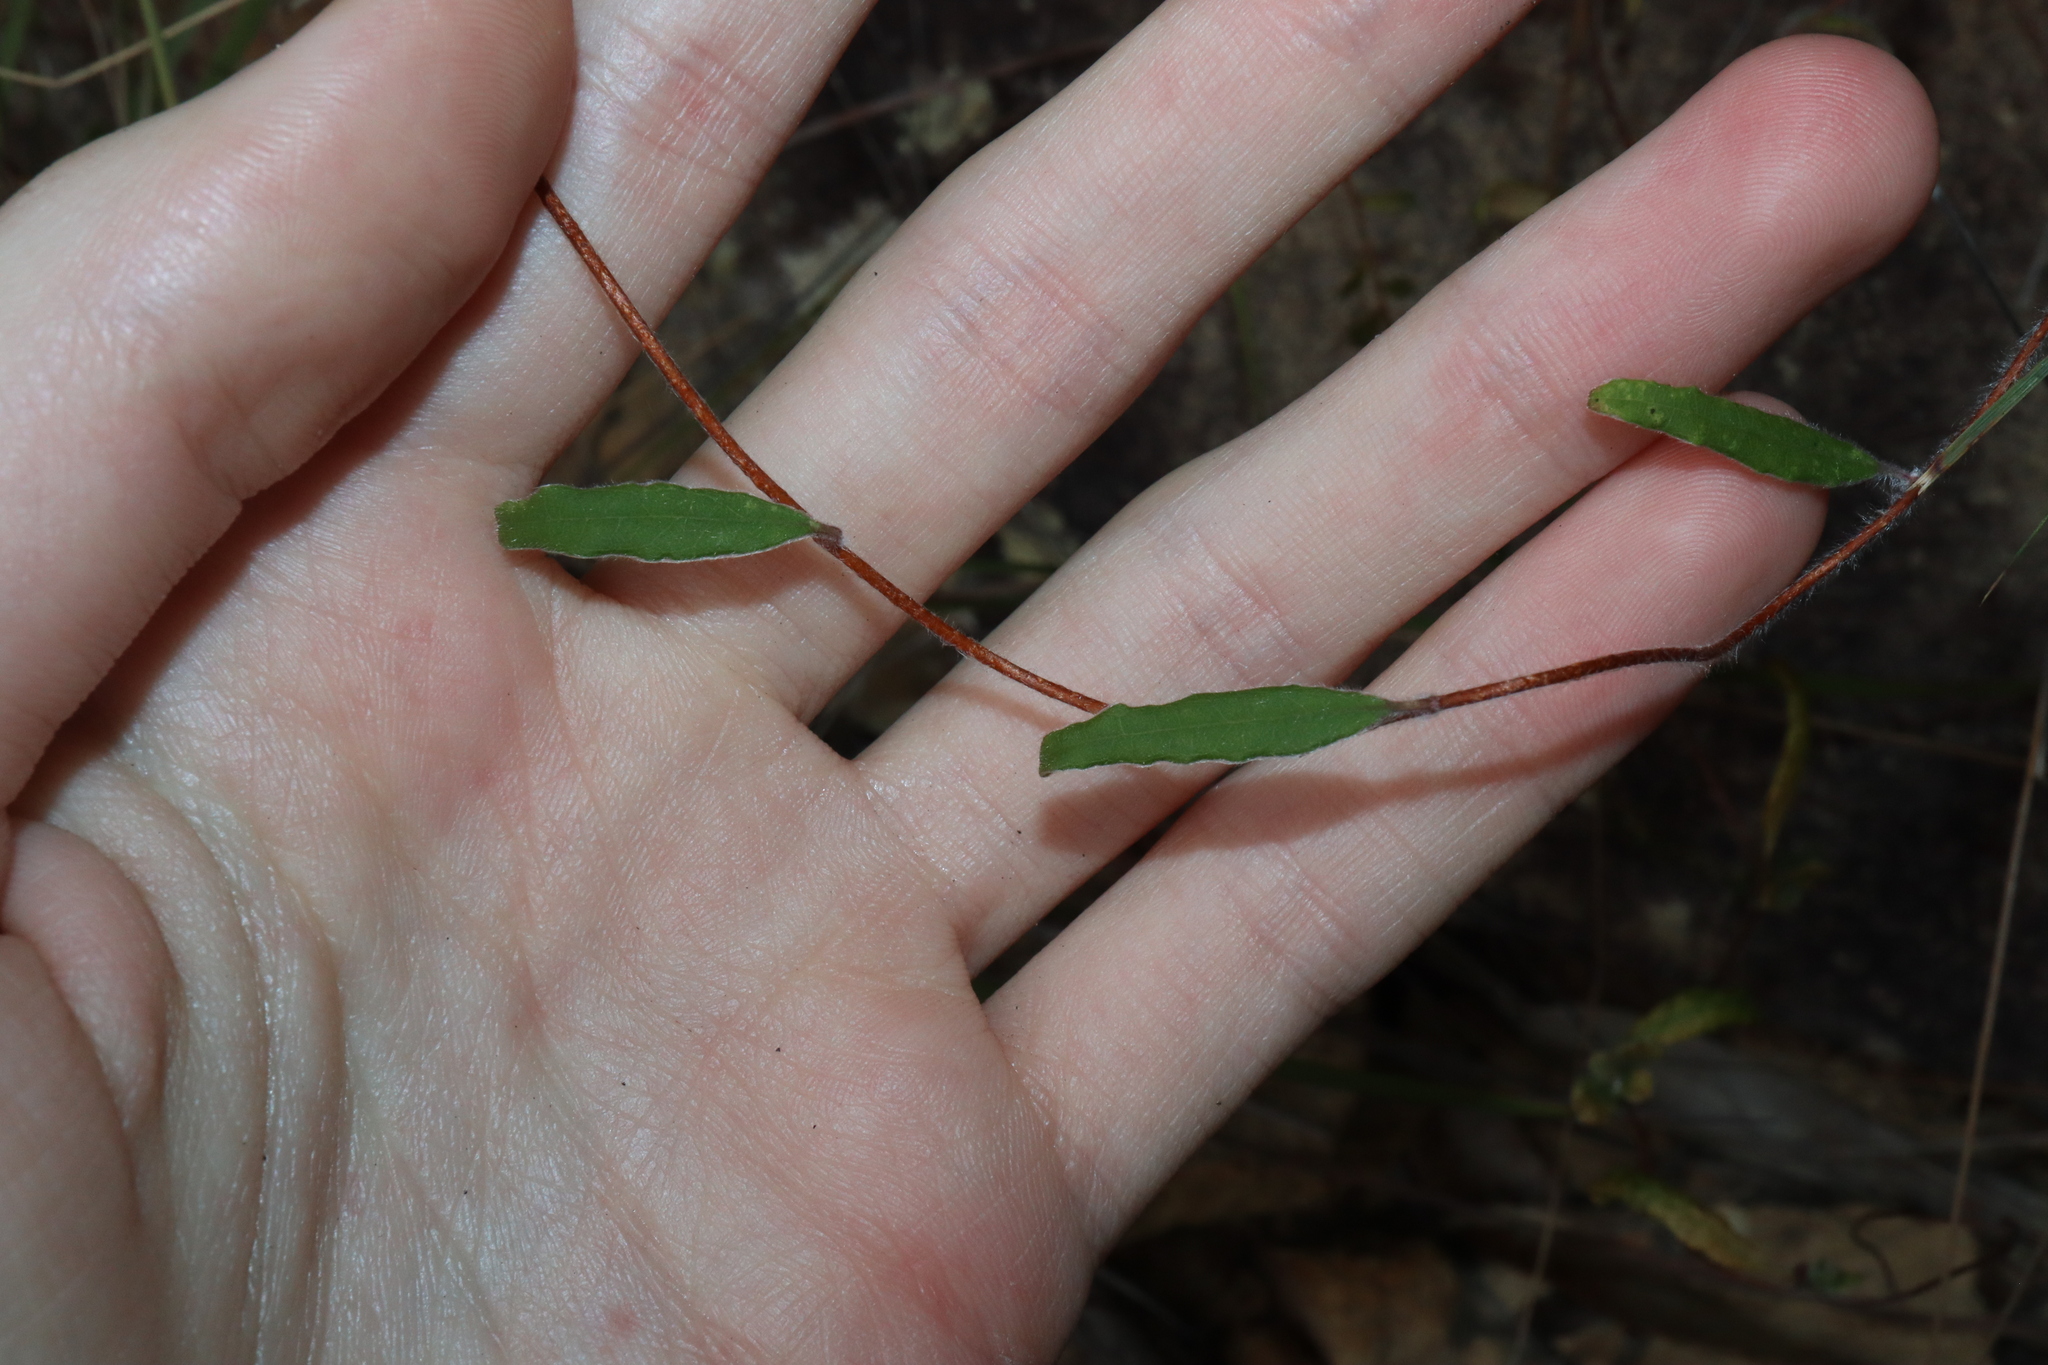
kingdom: Plantae
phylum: Tracheophyta
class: Magnoliopsida
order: Apiales
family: Pittosporaceae
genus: Billardiera
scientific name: Billardiera scandens
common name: Apple-berry
